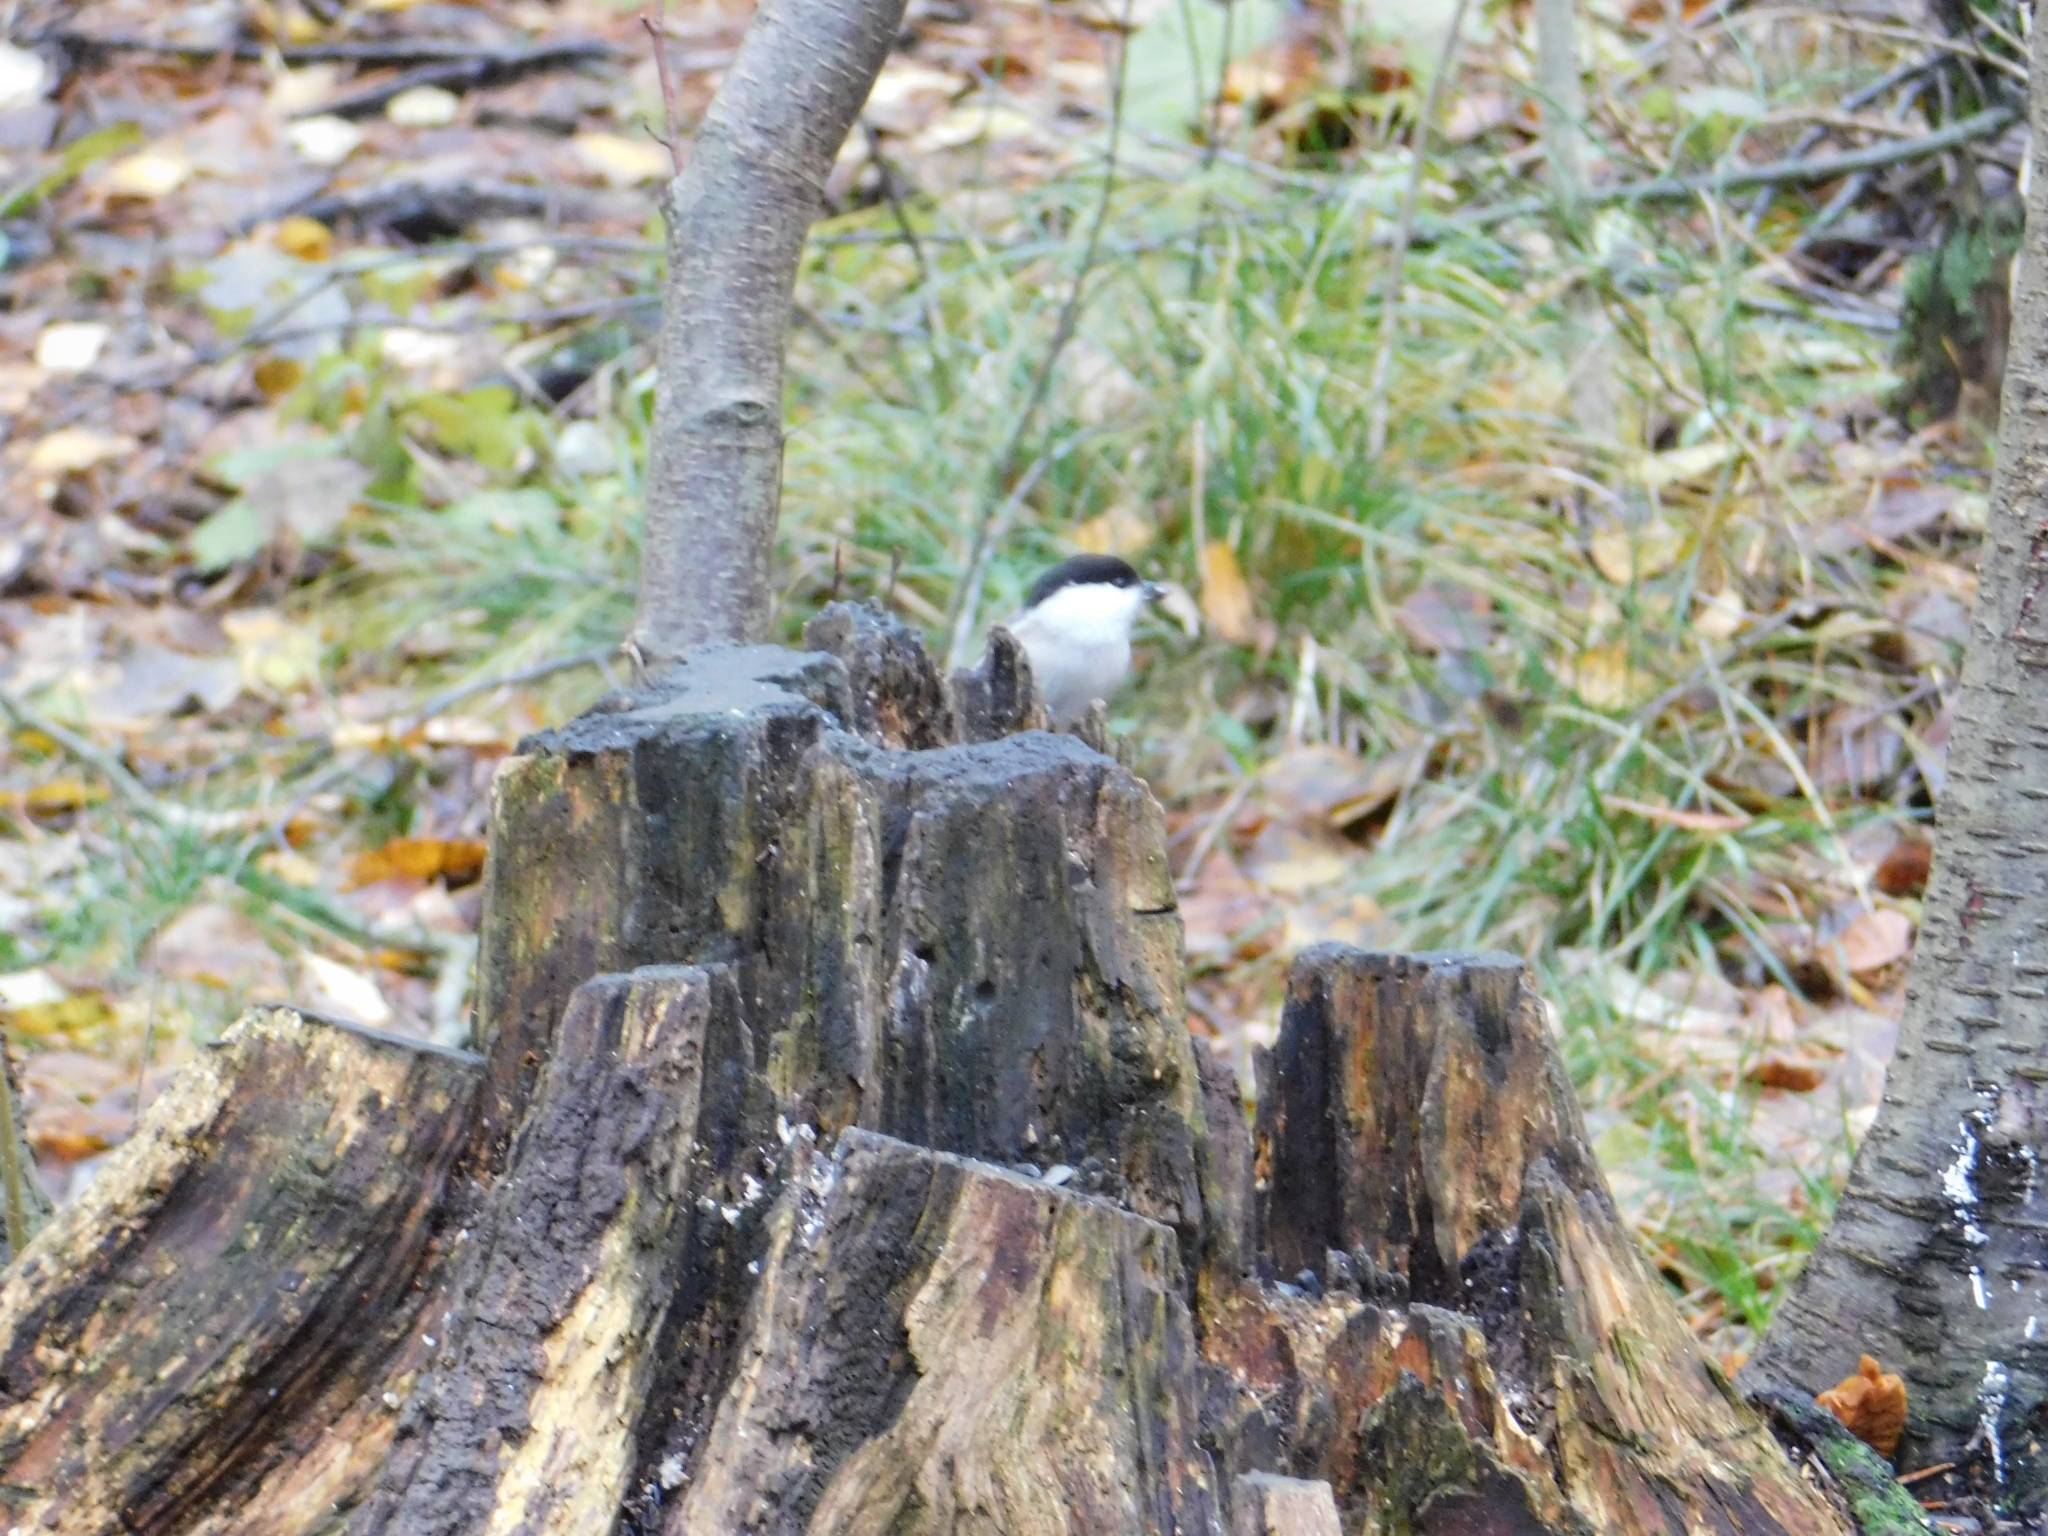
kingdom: Animalia
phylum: Chordata
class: Aves
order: Passeriformes
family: Paridae
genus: Poecile
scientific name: Poecile montanus
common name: Willow tit
